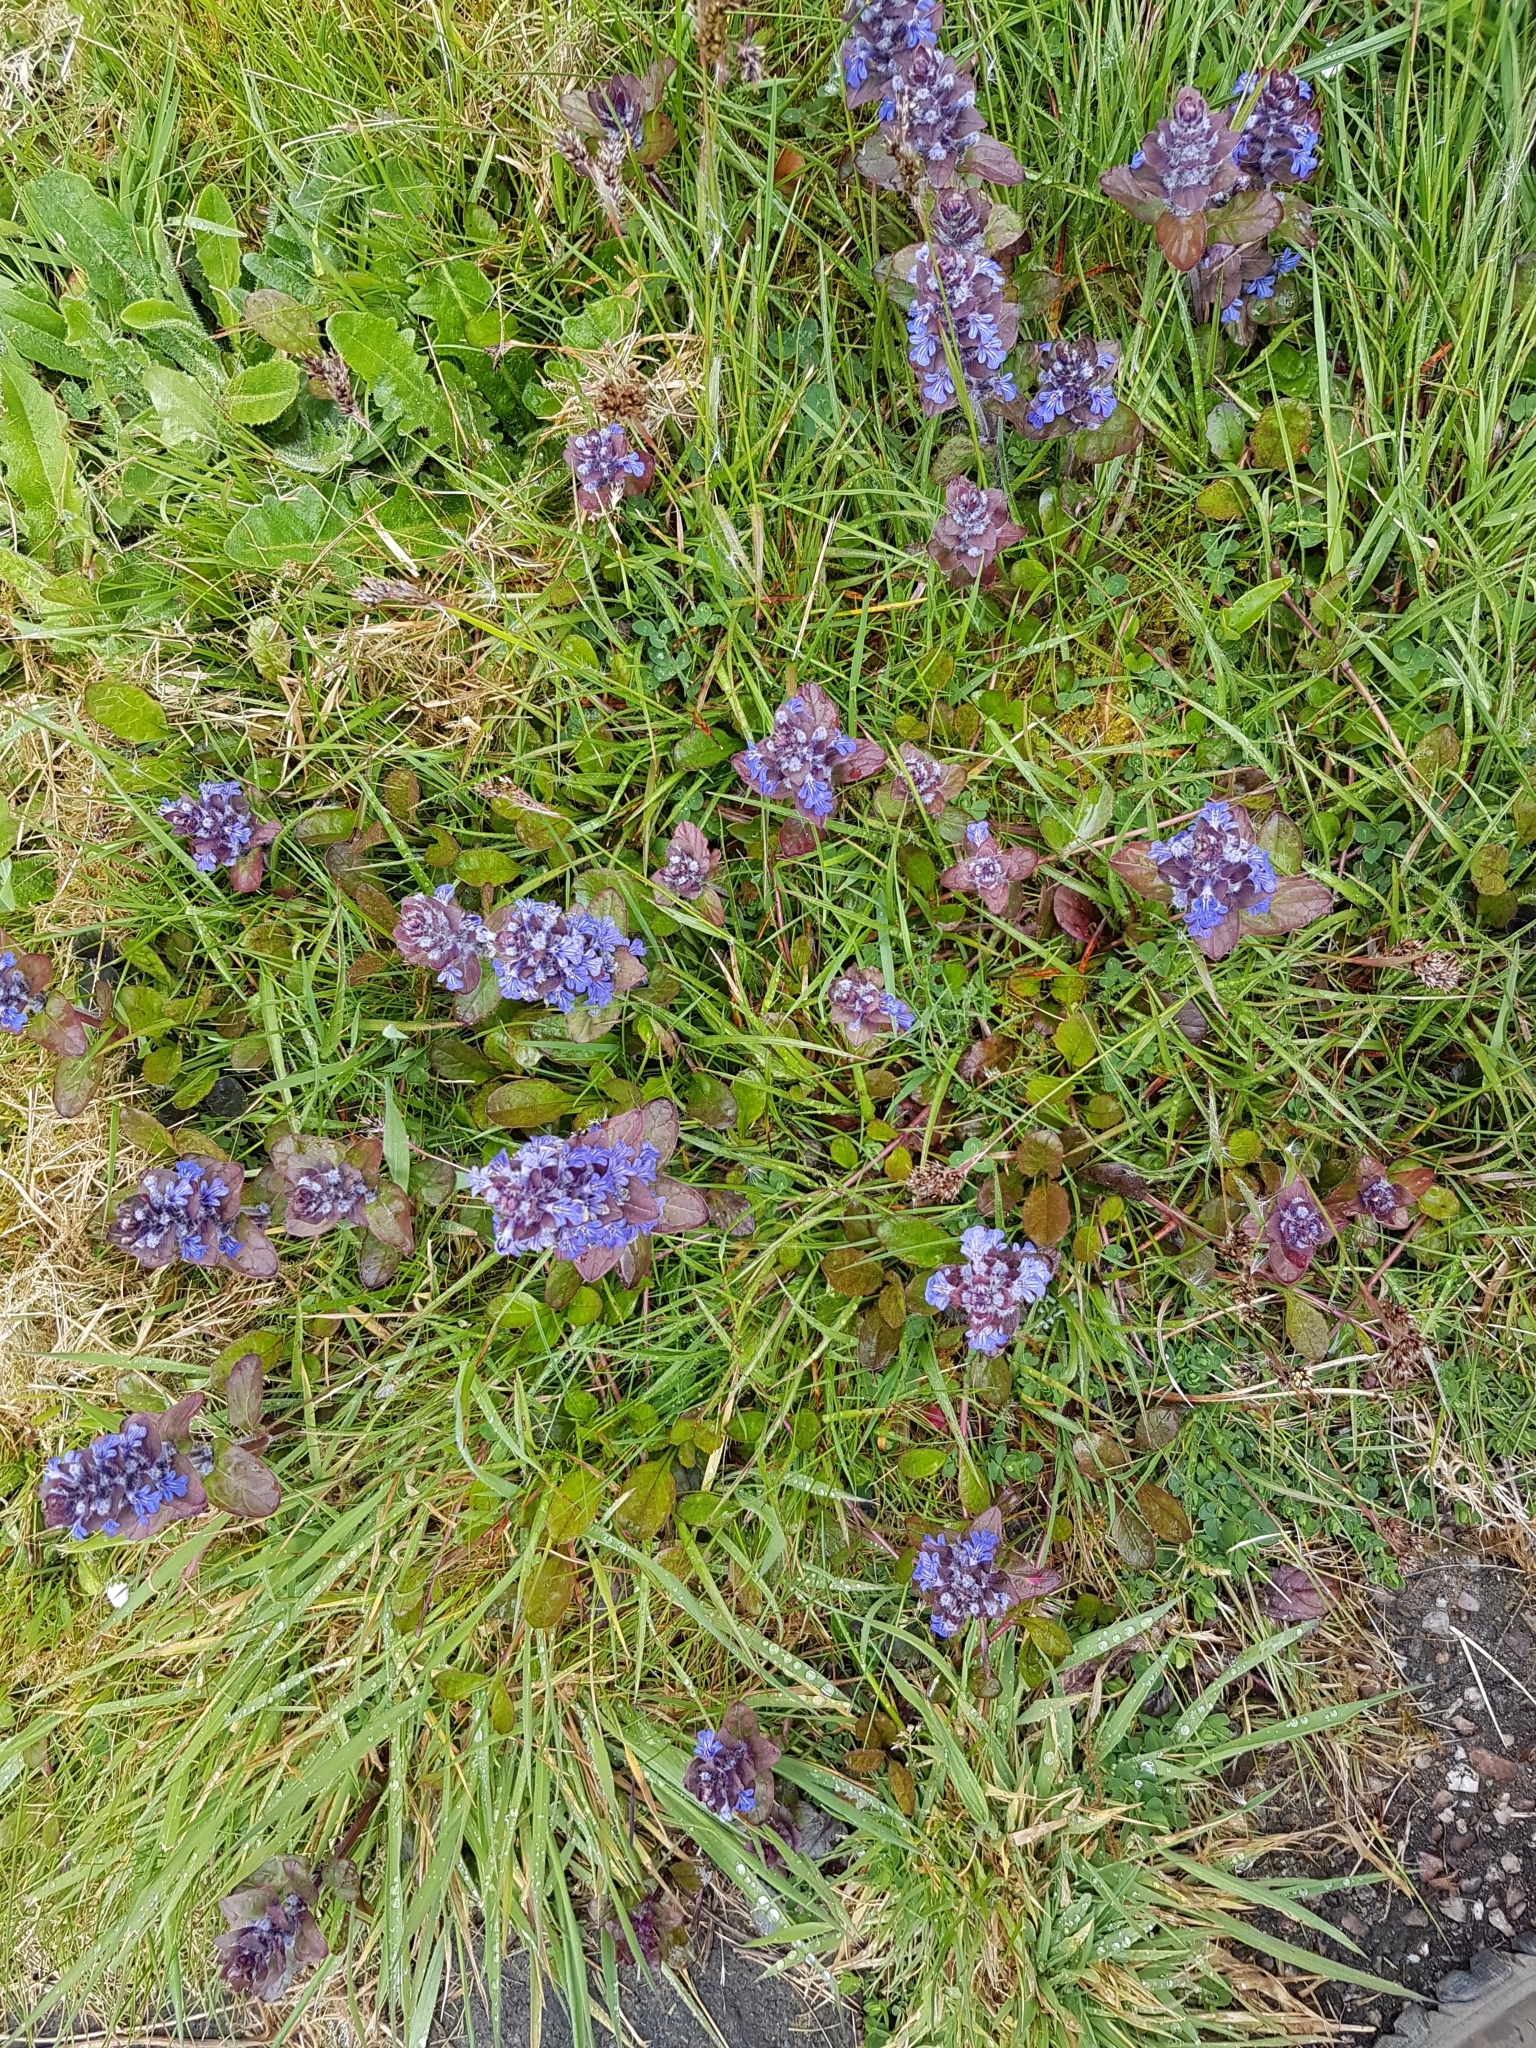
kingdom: Plantae
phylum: Tracheophyta
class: Magnoliopsida
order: Lamiales
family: Lamiaceae
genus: Ajuga
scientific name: Ajuga reptans
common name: Bugle
